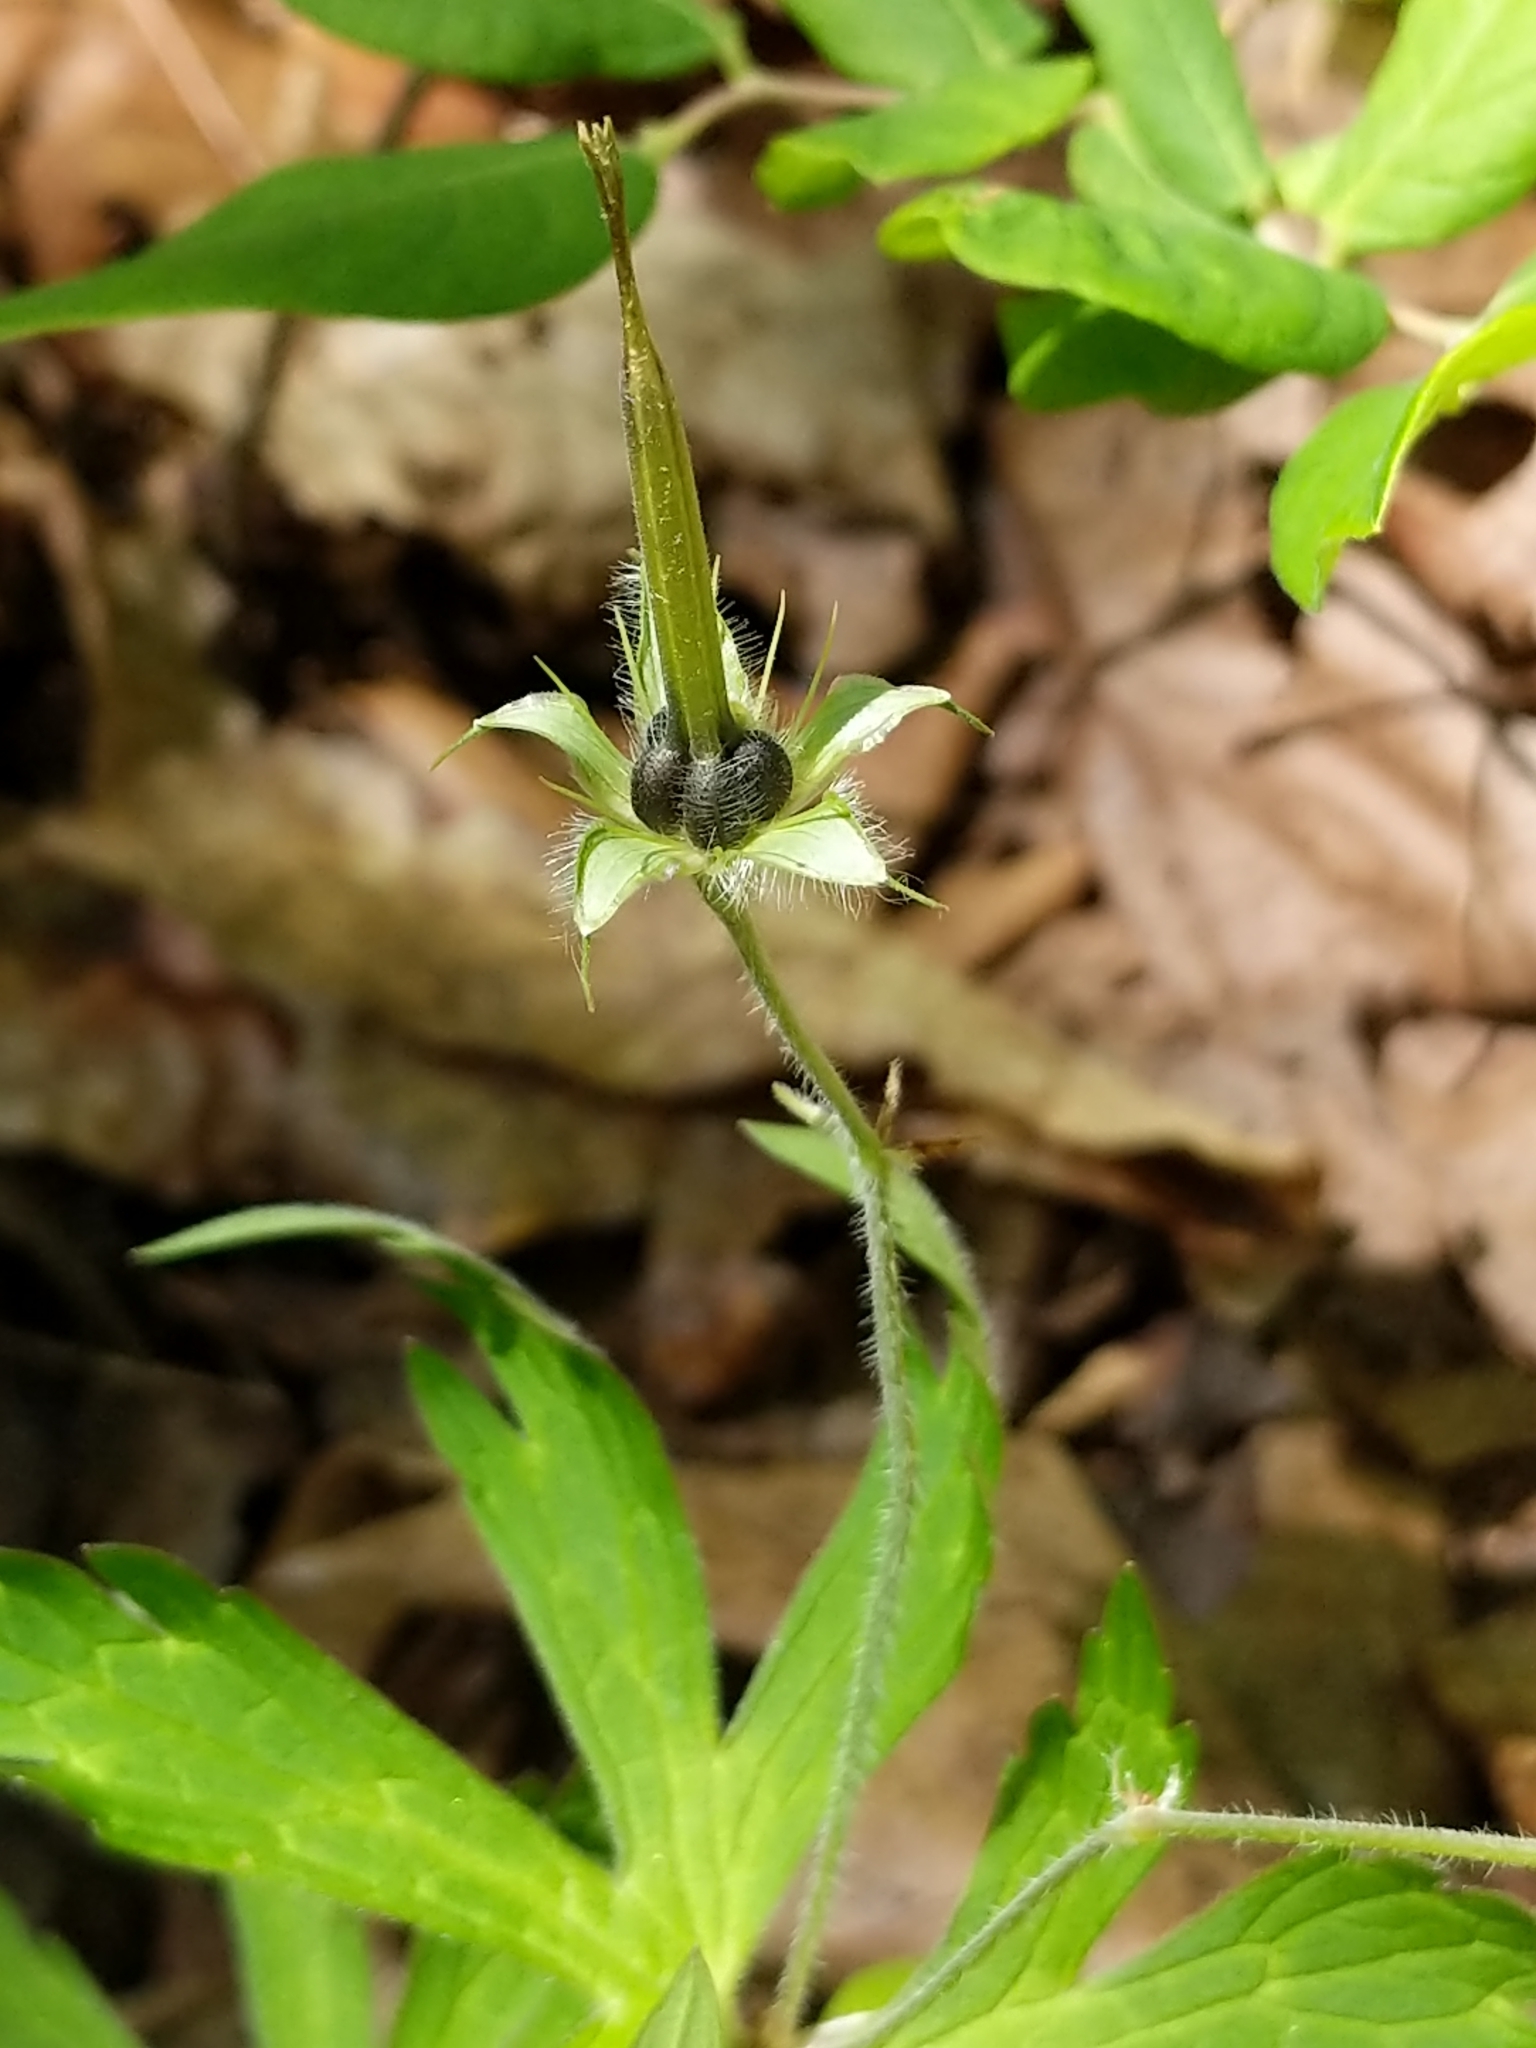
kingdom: Plantae
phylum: Tracheophyta
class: Magnoliopsida
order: Geraniales
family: Geraniaceae
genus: Geranium
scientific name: Geranium maculatum
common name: Spotted geranium
